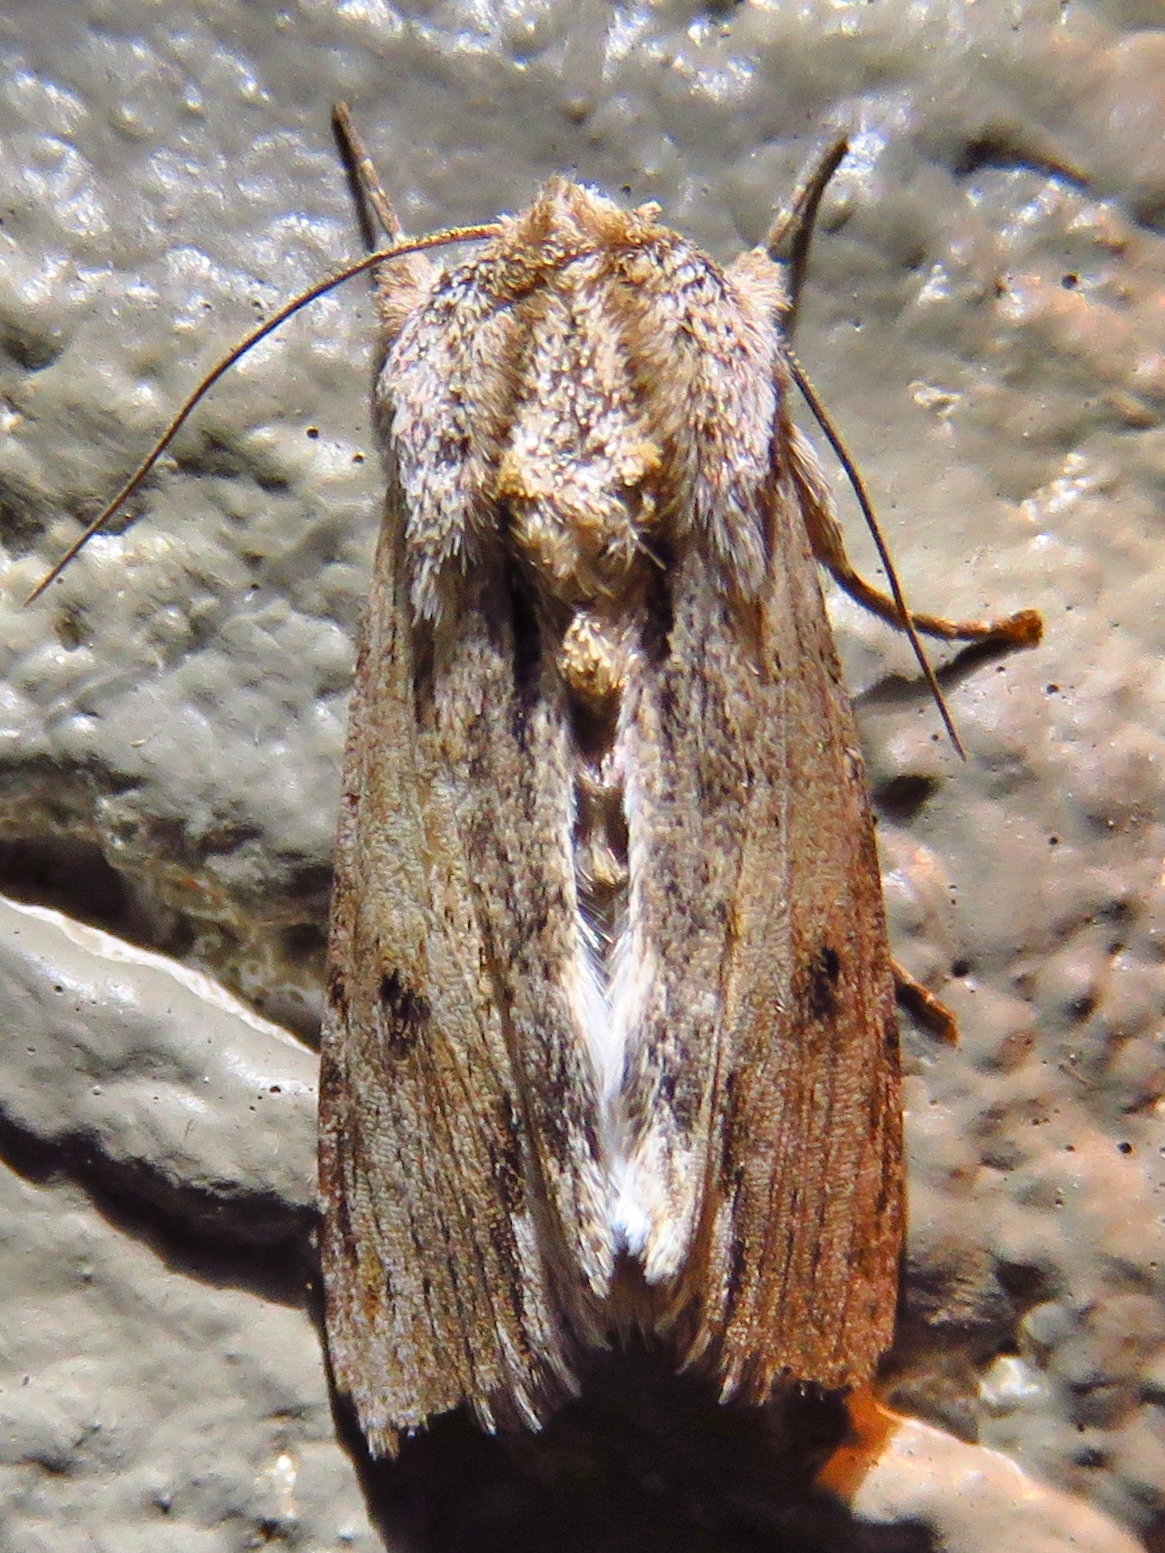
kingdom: Animalia
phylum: Arthropoda
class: Insecta
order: Lepidoptera
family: Noctuidae
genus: Spodoptera
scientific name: Spodoptera eridania
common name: Southern army worm
